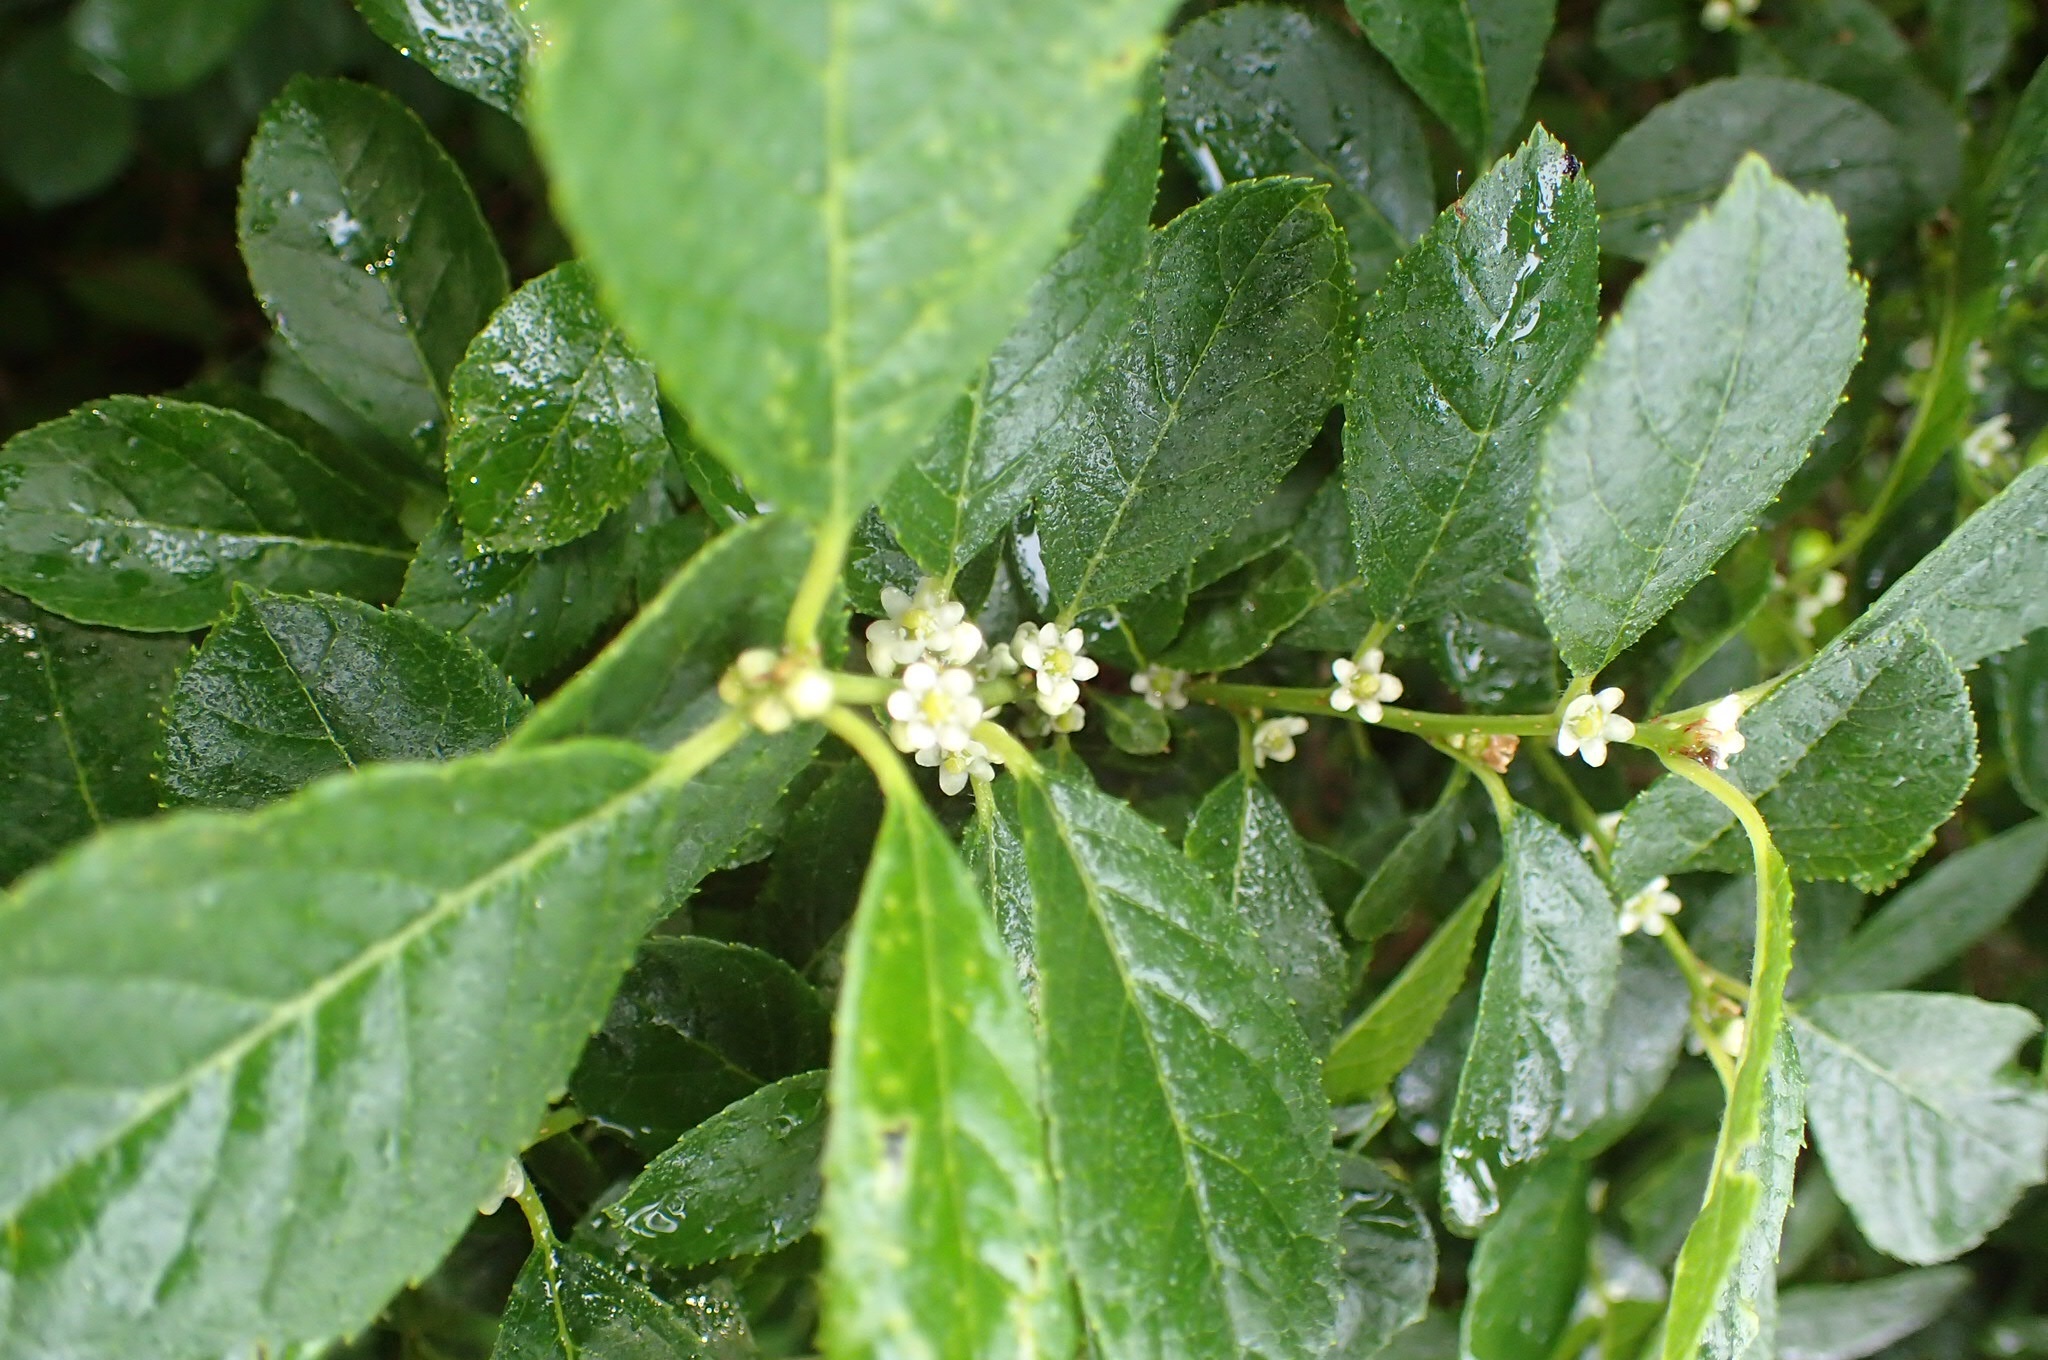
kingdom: Plantae
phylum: Tracheophyta
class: Magnoliopsida
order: Aquifoliales
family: Aquifoliaceae
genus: Ilex
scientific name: Ilex verticillata
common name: Virginia winterberry
